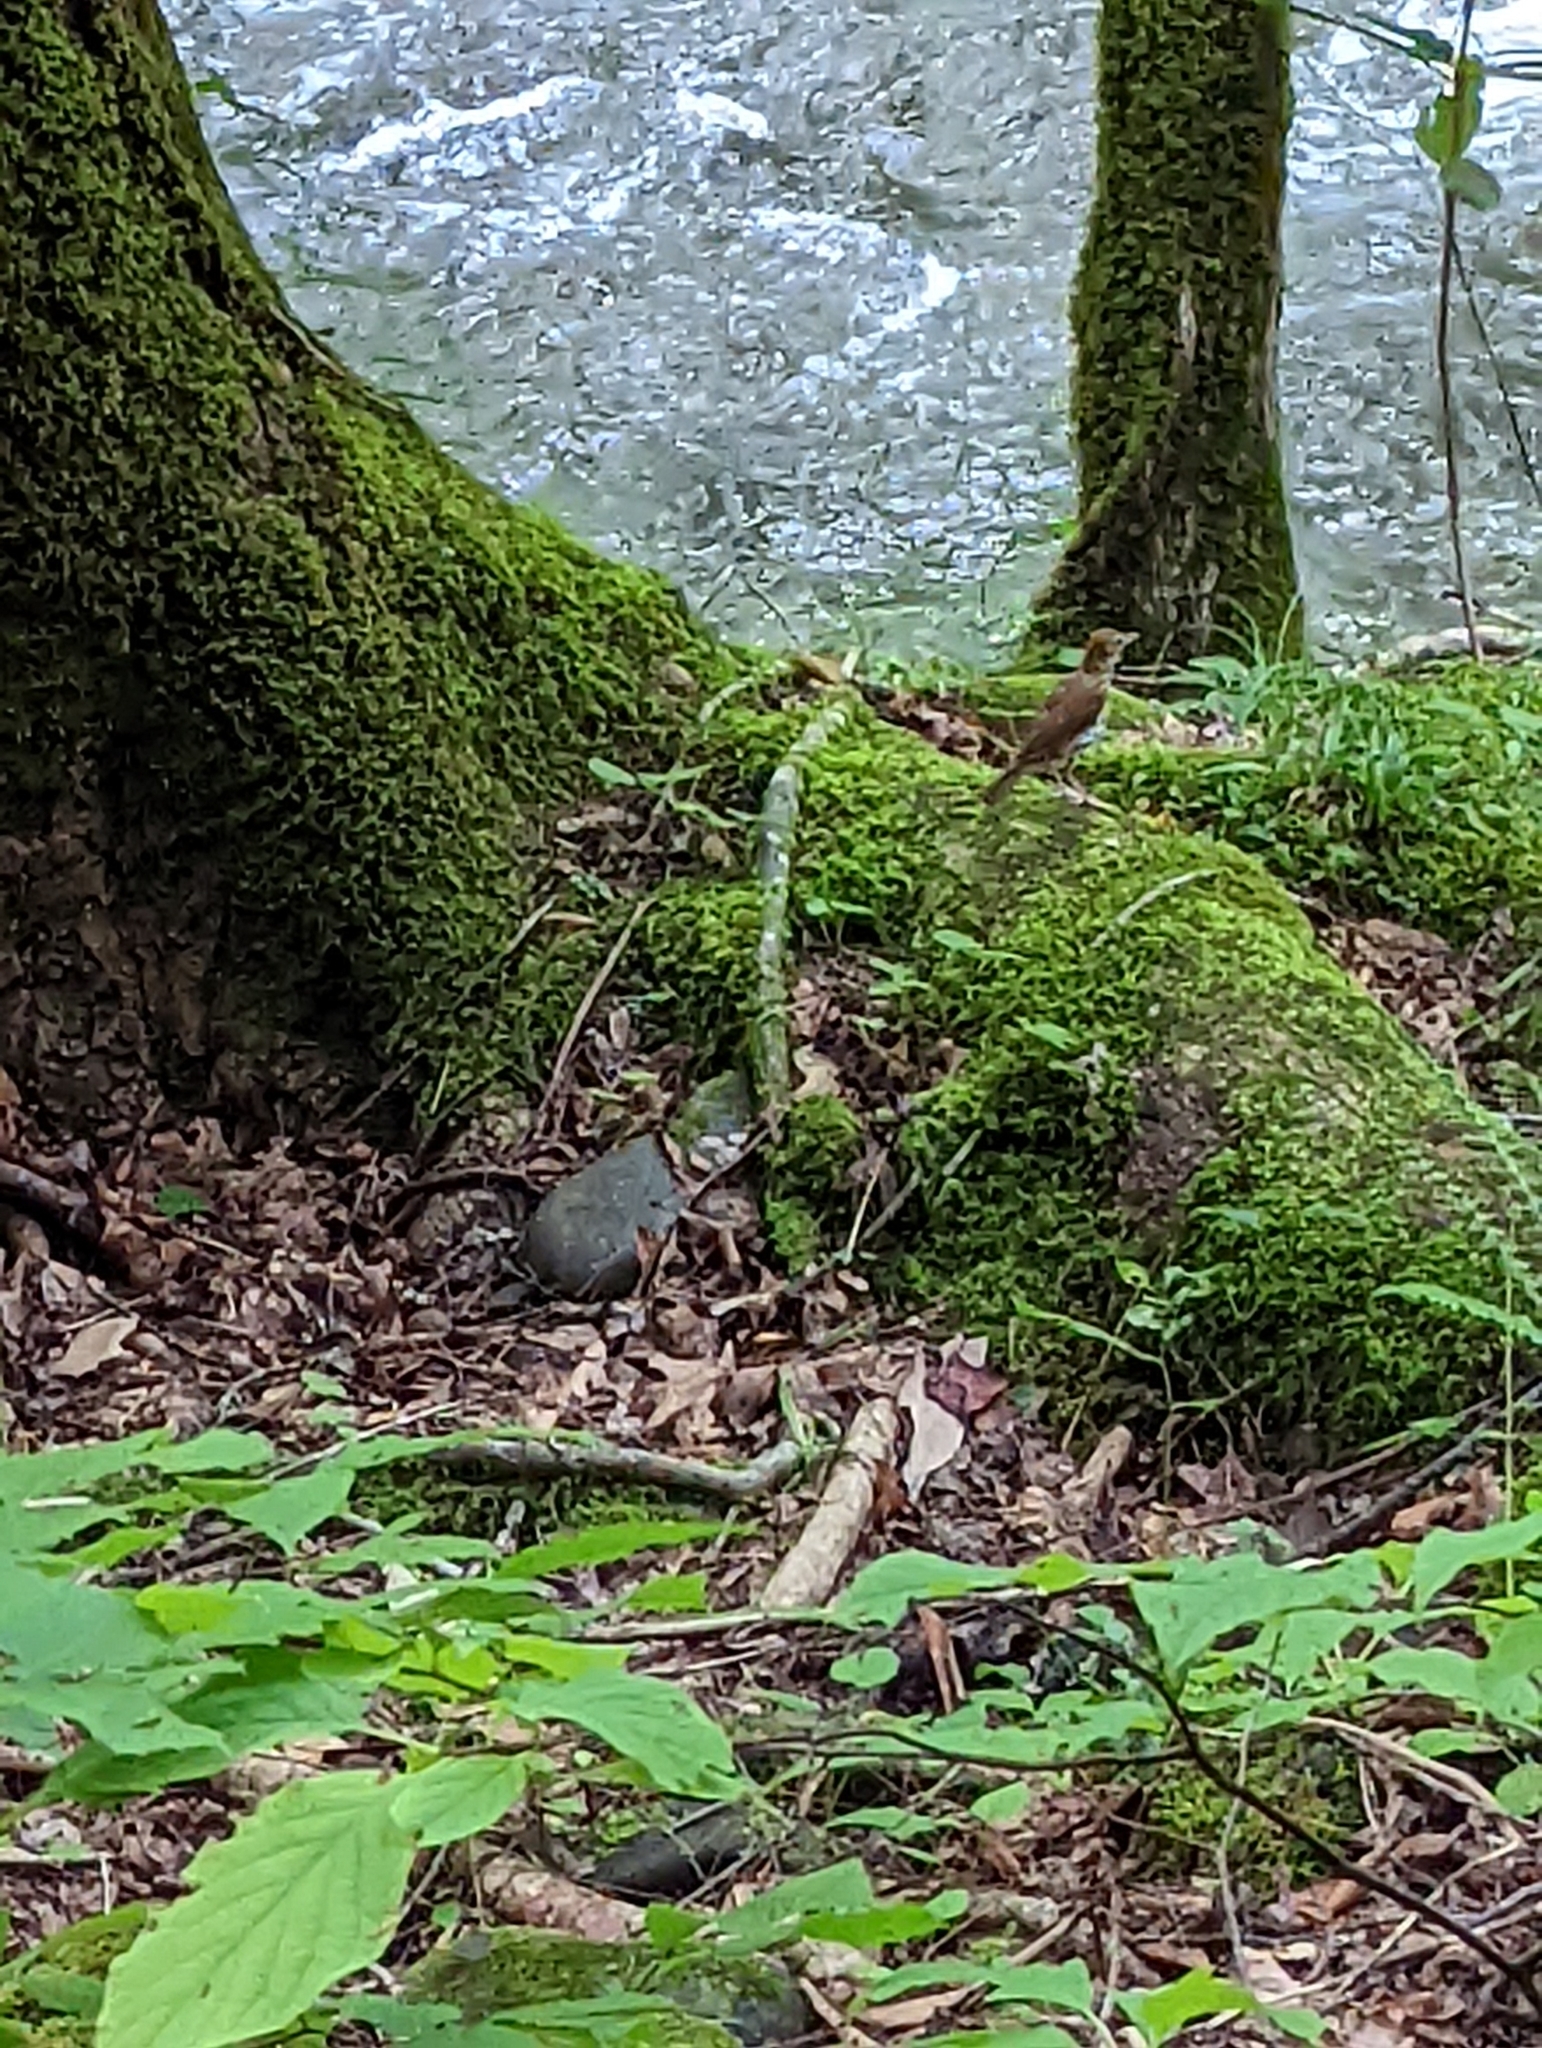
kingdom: Animalia
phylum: Chordata
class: Aves
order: Passeriformes
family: Turdidae
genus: Hylocichla
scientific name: Hylocichla mustelina
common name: Wood thrush
